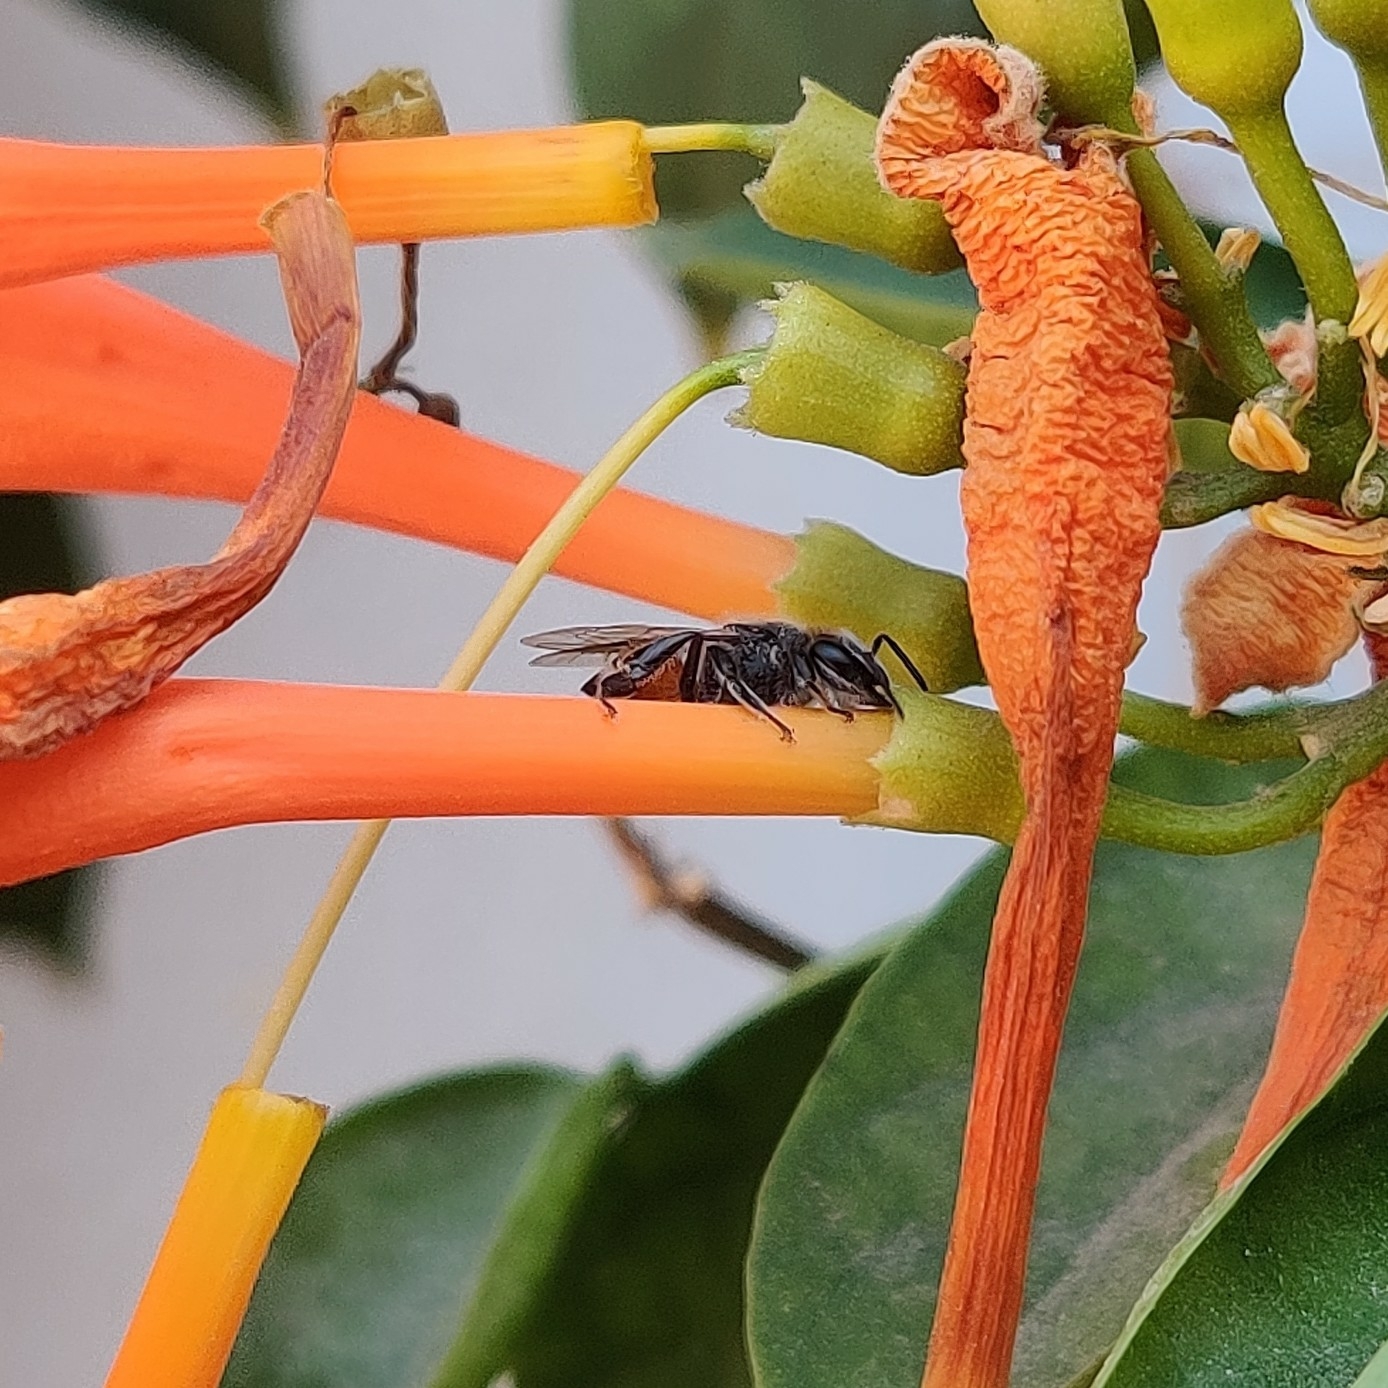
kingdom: Animalia
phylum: Arthropoda
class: Insecta
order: Hymenoptera
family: Apidae
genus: Apis
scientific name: Apis florea
